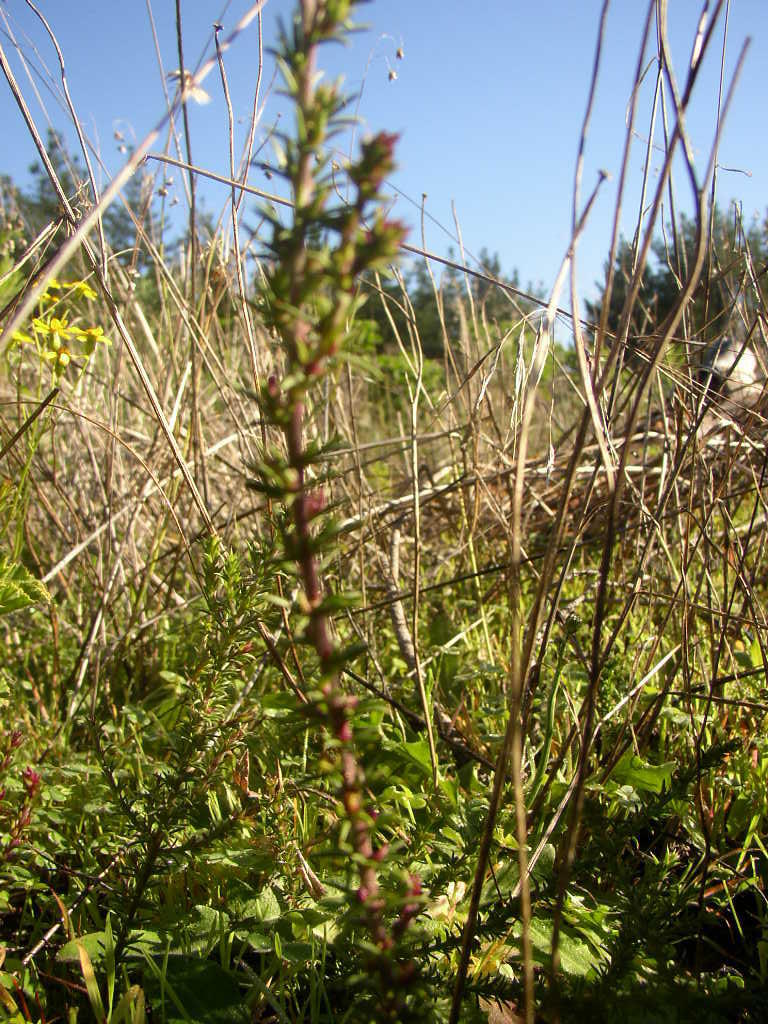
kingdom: Plantae
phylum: Tracheophyta
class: Magnoliopsida
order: Rosales
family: Rosaceae
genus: Cliffortia
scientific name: Cliffortia ruscifolia
